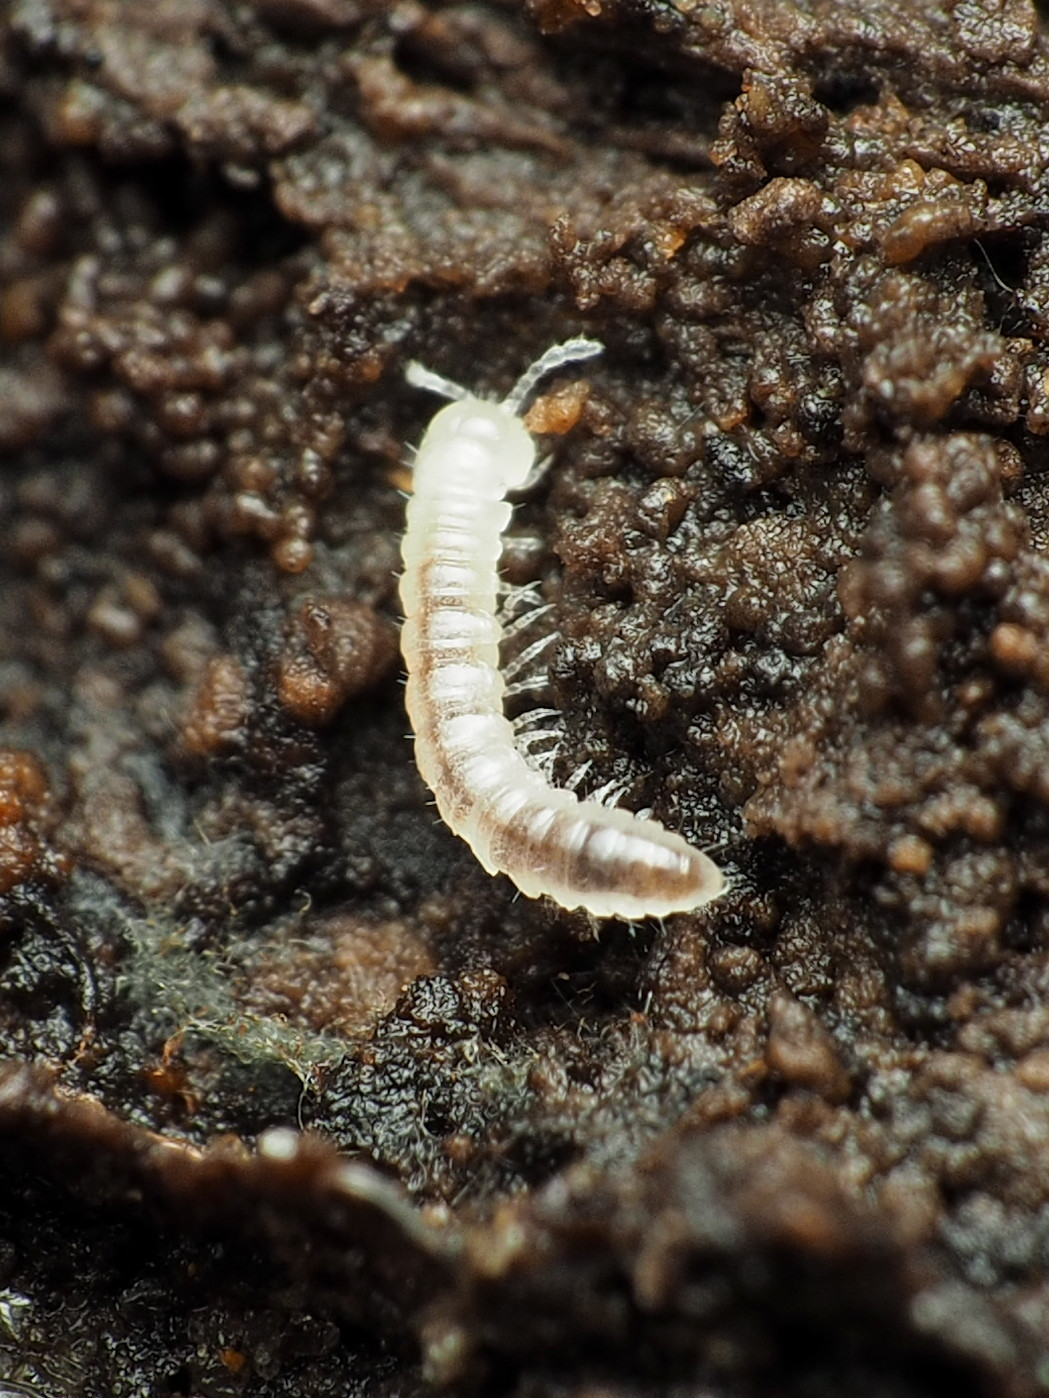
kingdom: Animalia
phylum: Arthropoda
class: Diplopoda
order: Polydesmida
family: Paradoxosomatidae
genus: Oxidus
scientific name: Oxidus gracilis
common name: Greenhouse millipede
